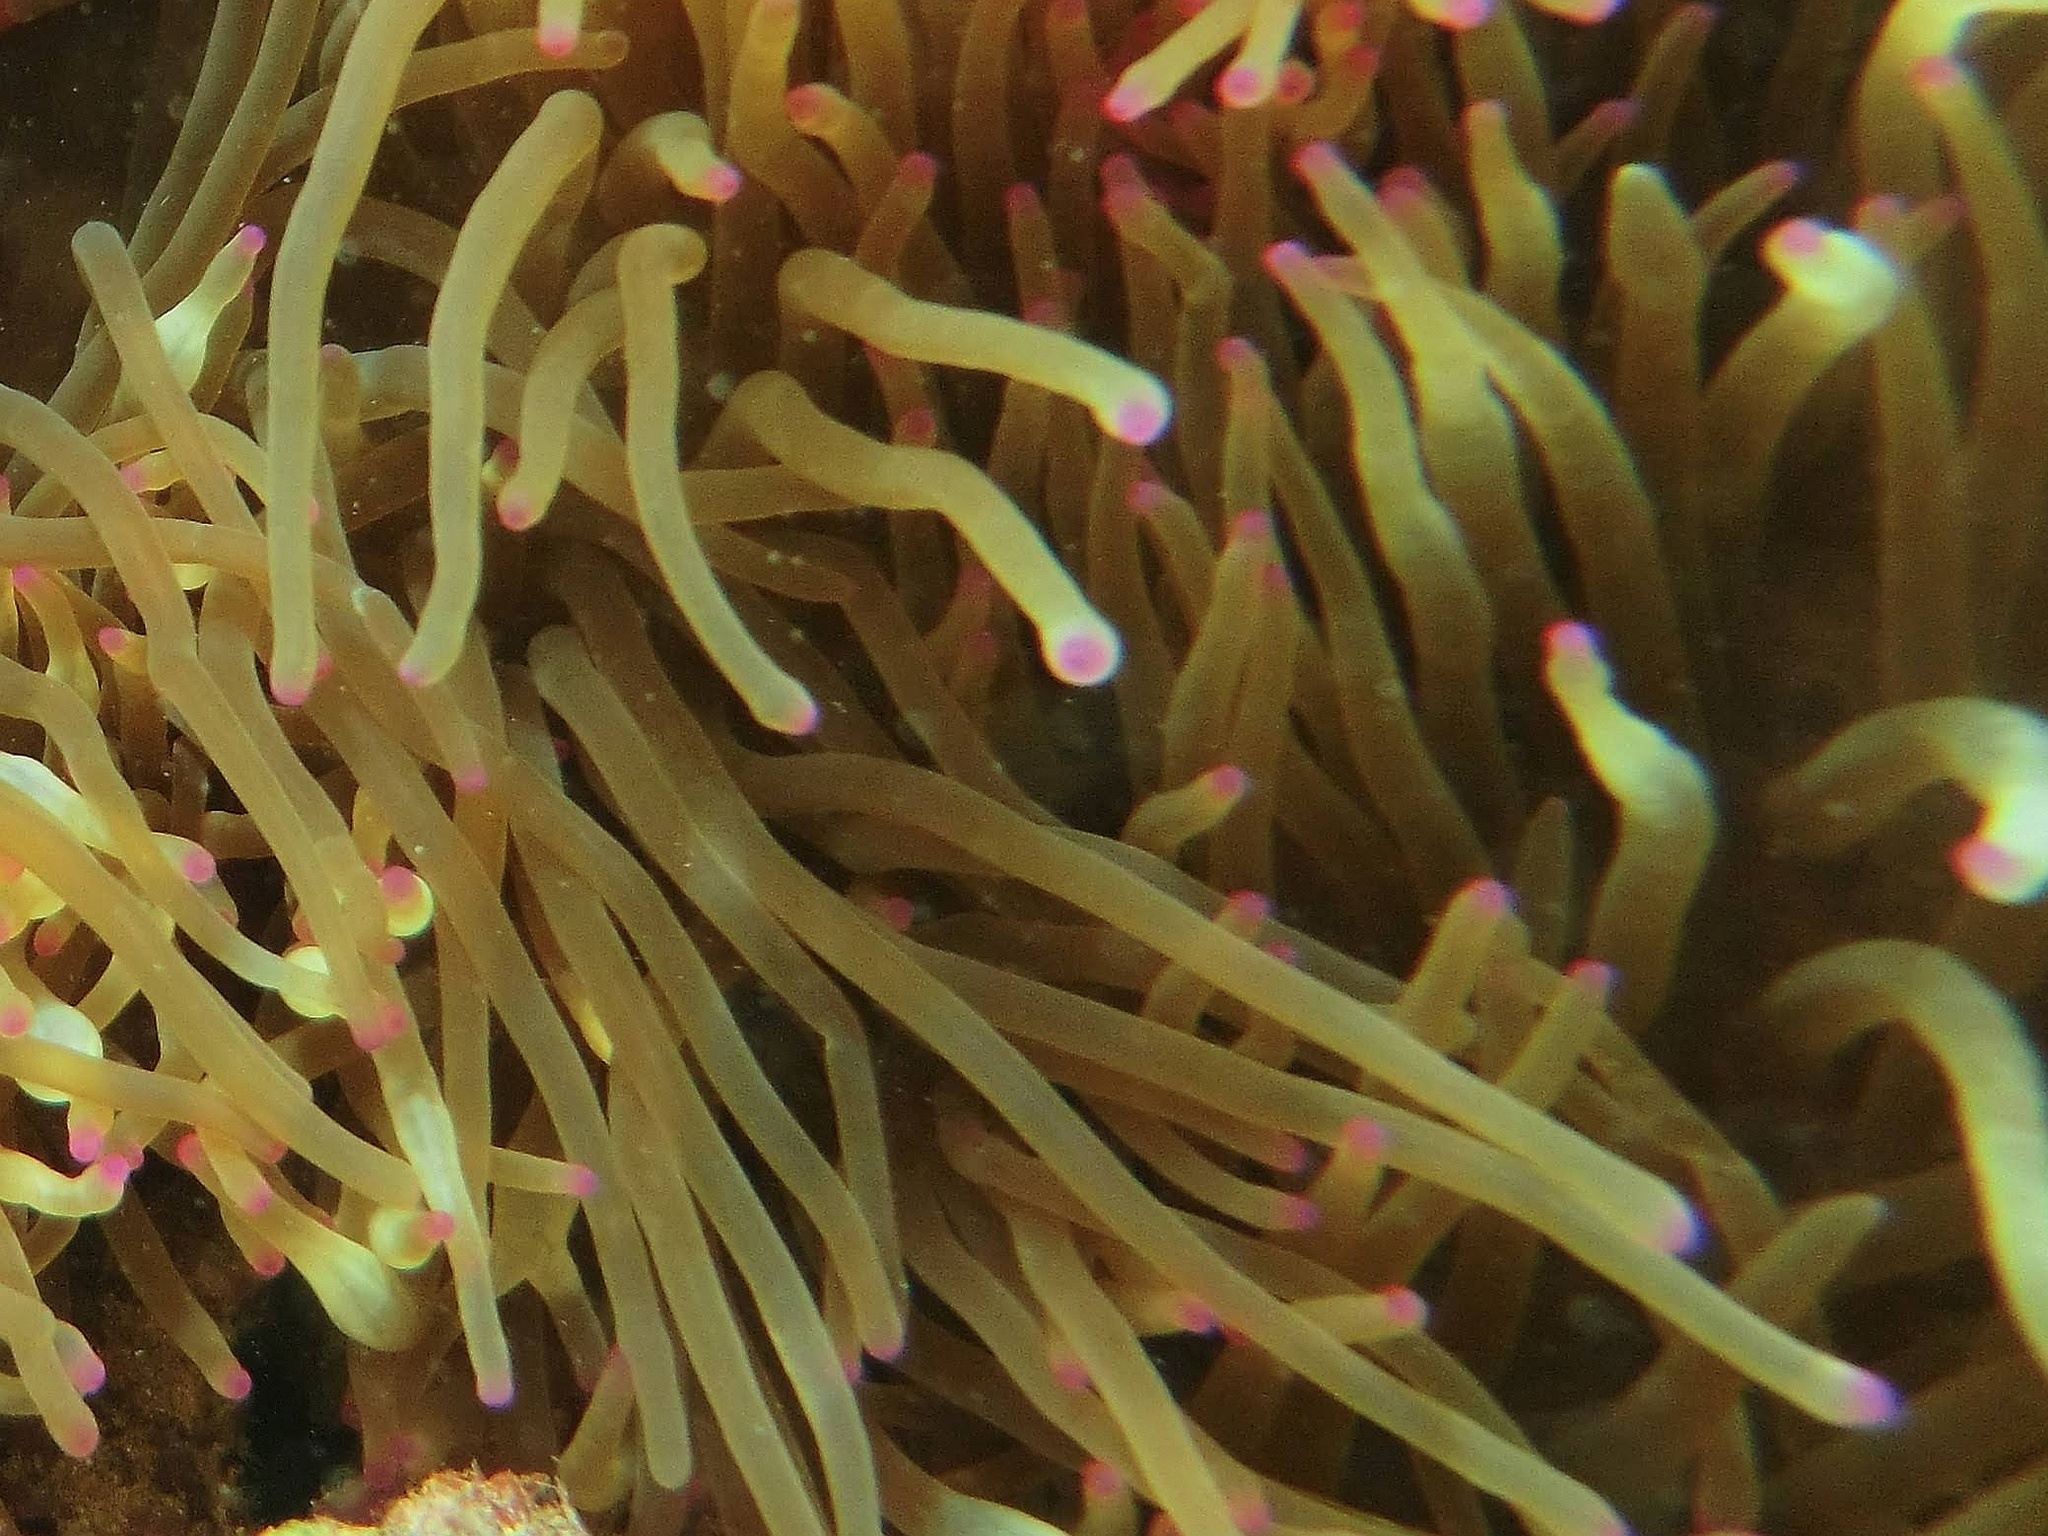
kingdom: Animalia
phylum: Cnidaria
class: Anthozoa
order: Actiniaria
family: Actiniidae
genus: Entacmaea
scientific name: Entacmaea quadricolor
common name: Bulb tentacle sea anemone
